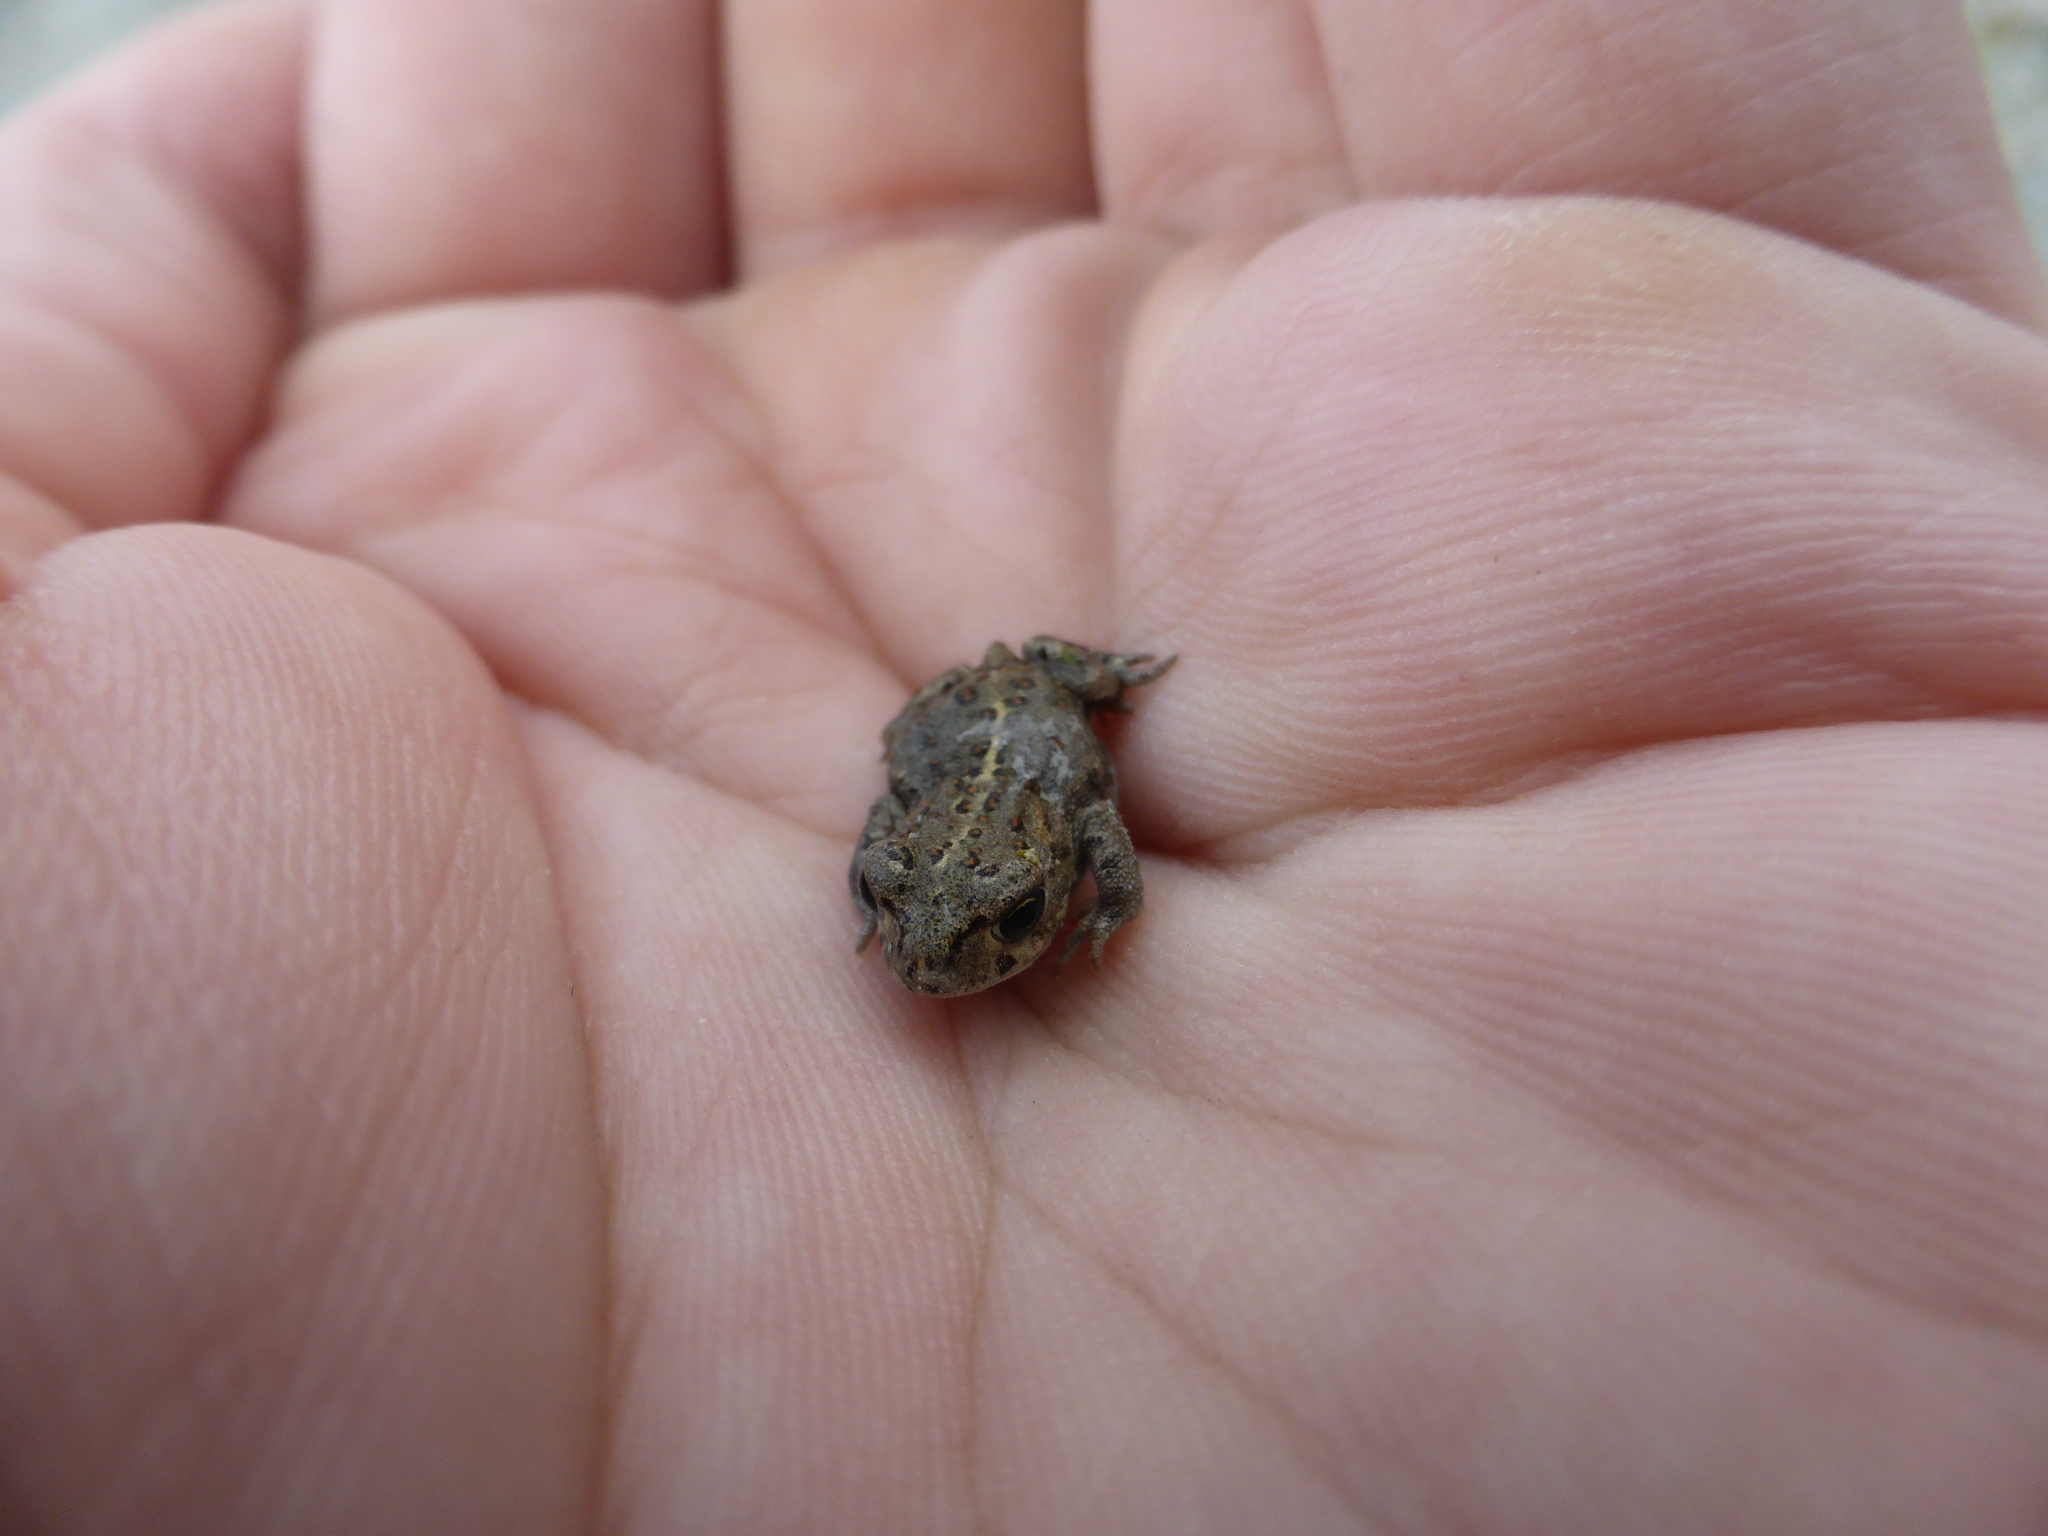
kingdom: Animalia
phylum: Chordata
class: Amphibia
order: Anura
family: Bufonidae
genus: Epidalea
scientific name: Epidalea calamita
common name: Natterjack toad
